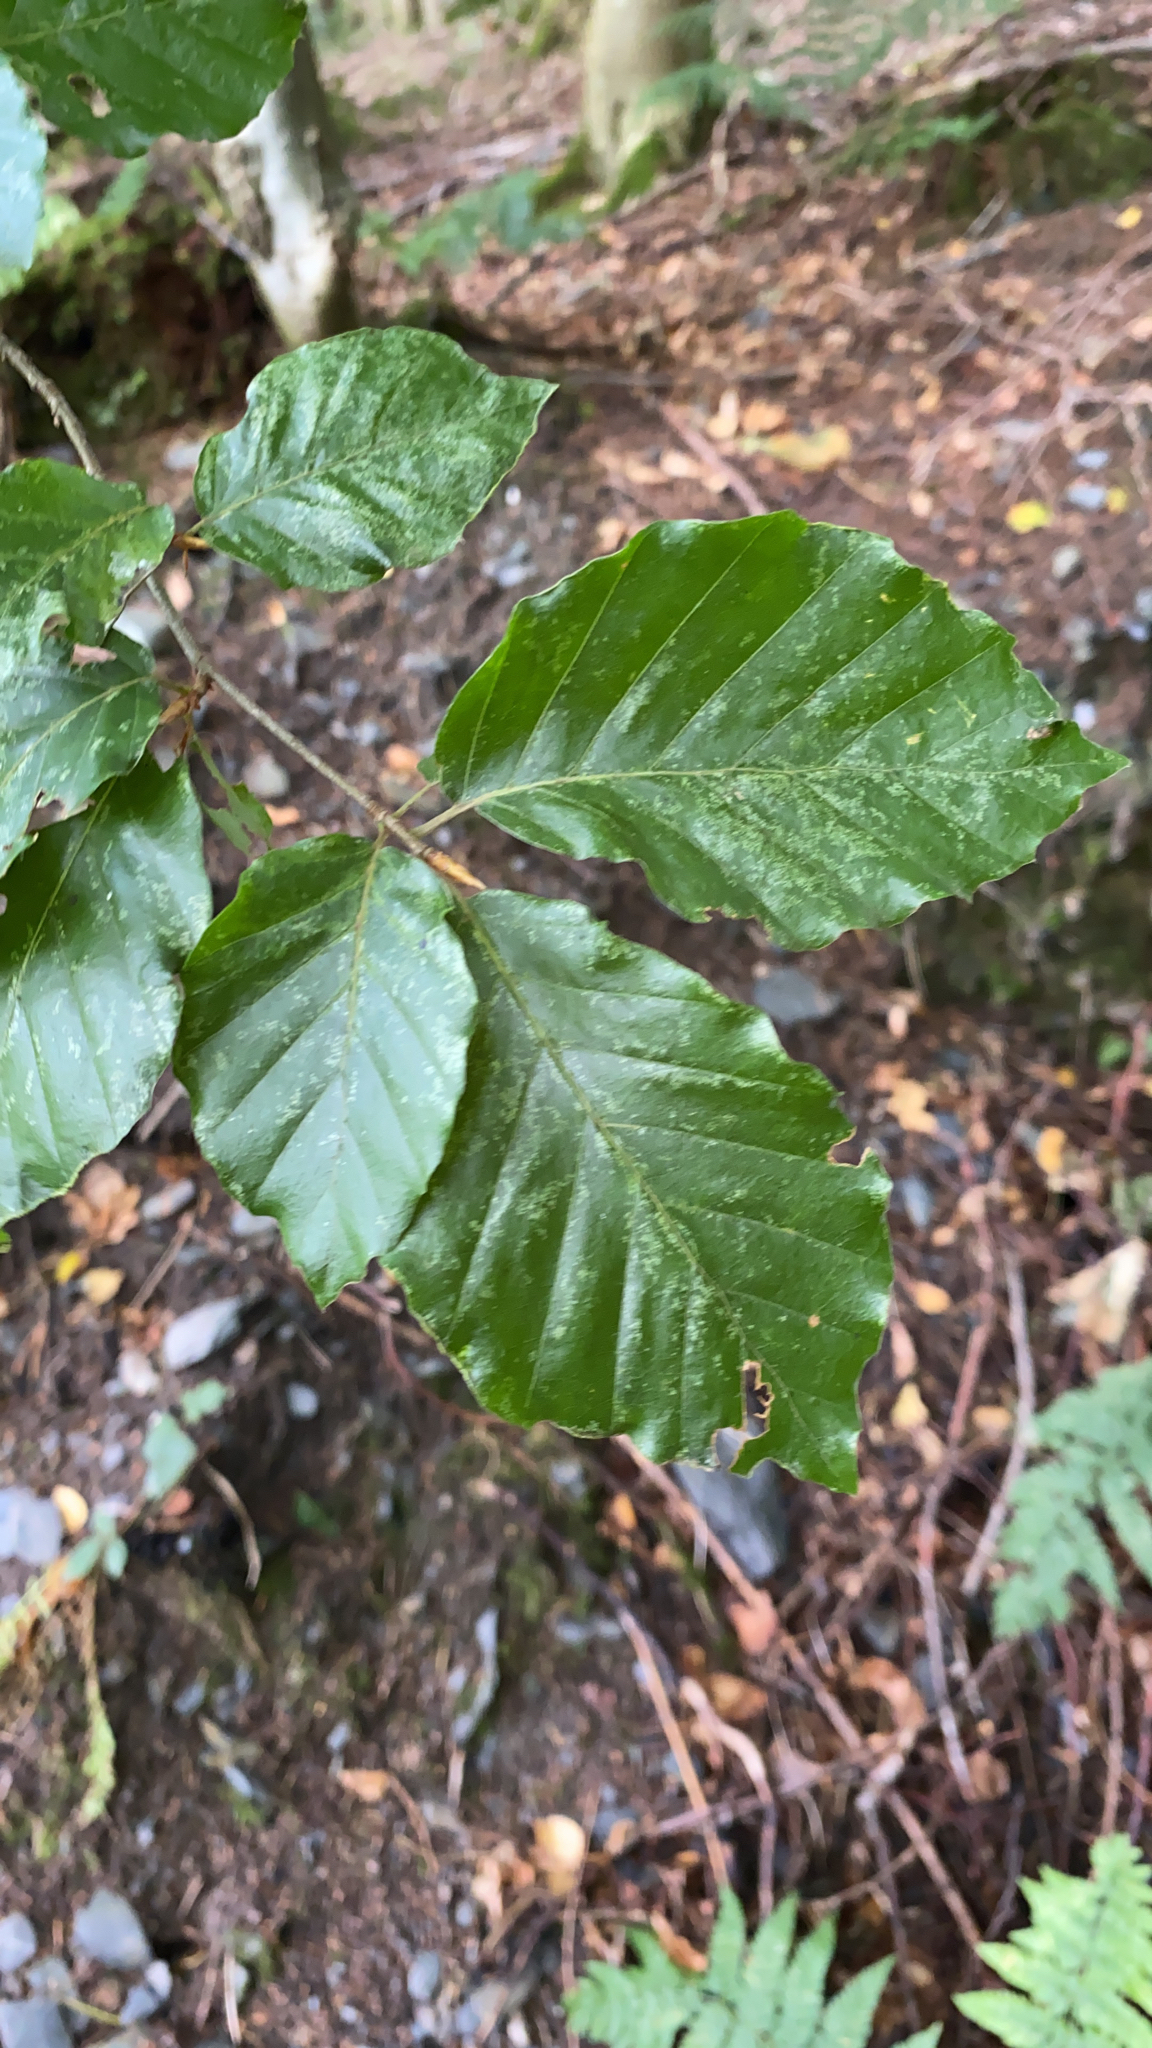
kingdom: Plantae
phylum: Tracheophyta
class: Magnoliopsida
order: Fagales
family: Fagaceae
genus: Fagus
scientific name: Fagus sylvatica
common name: Beech
